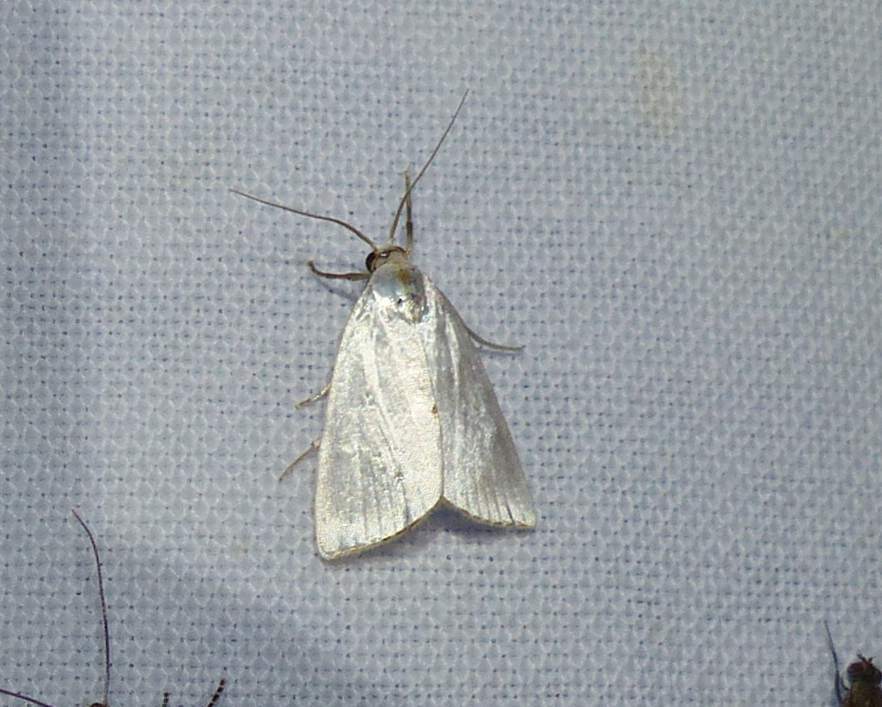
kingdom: Animalia
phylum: Arthropoda
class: Insecta
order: Lepidoptera
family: Crambidae
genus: Argyria
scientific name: Argyria nivalis
